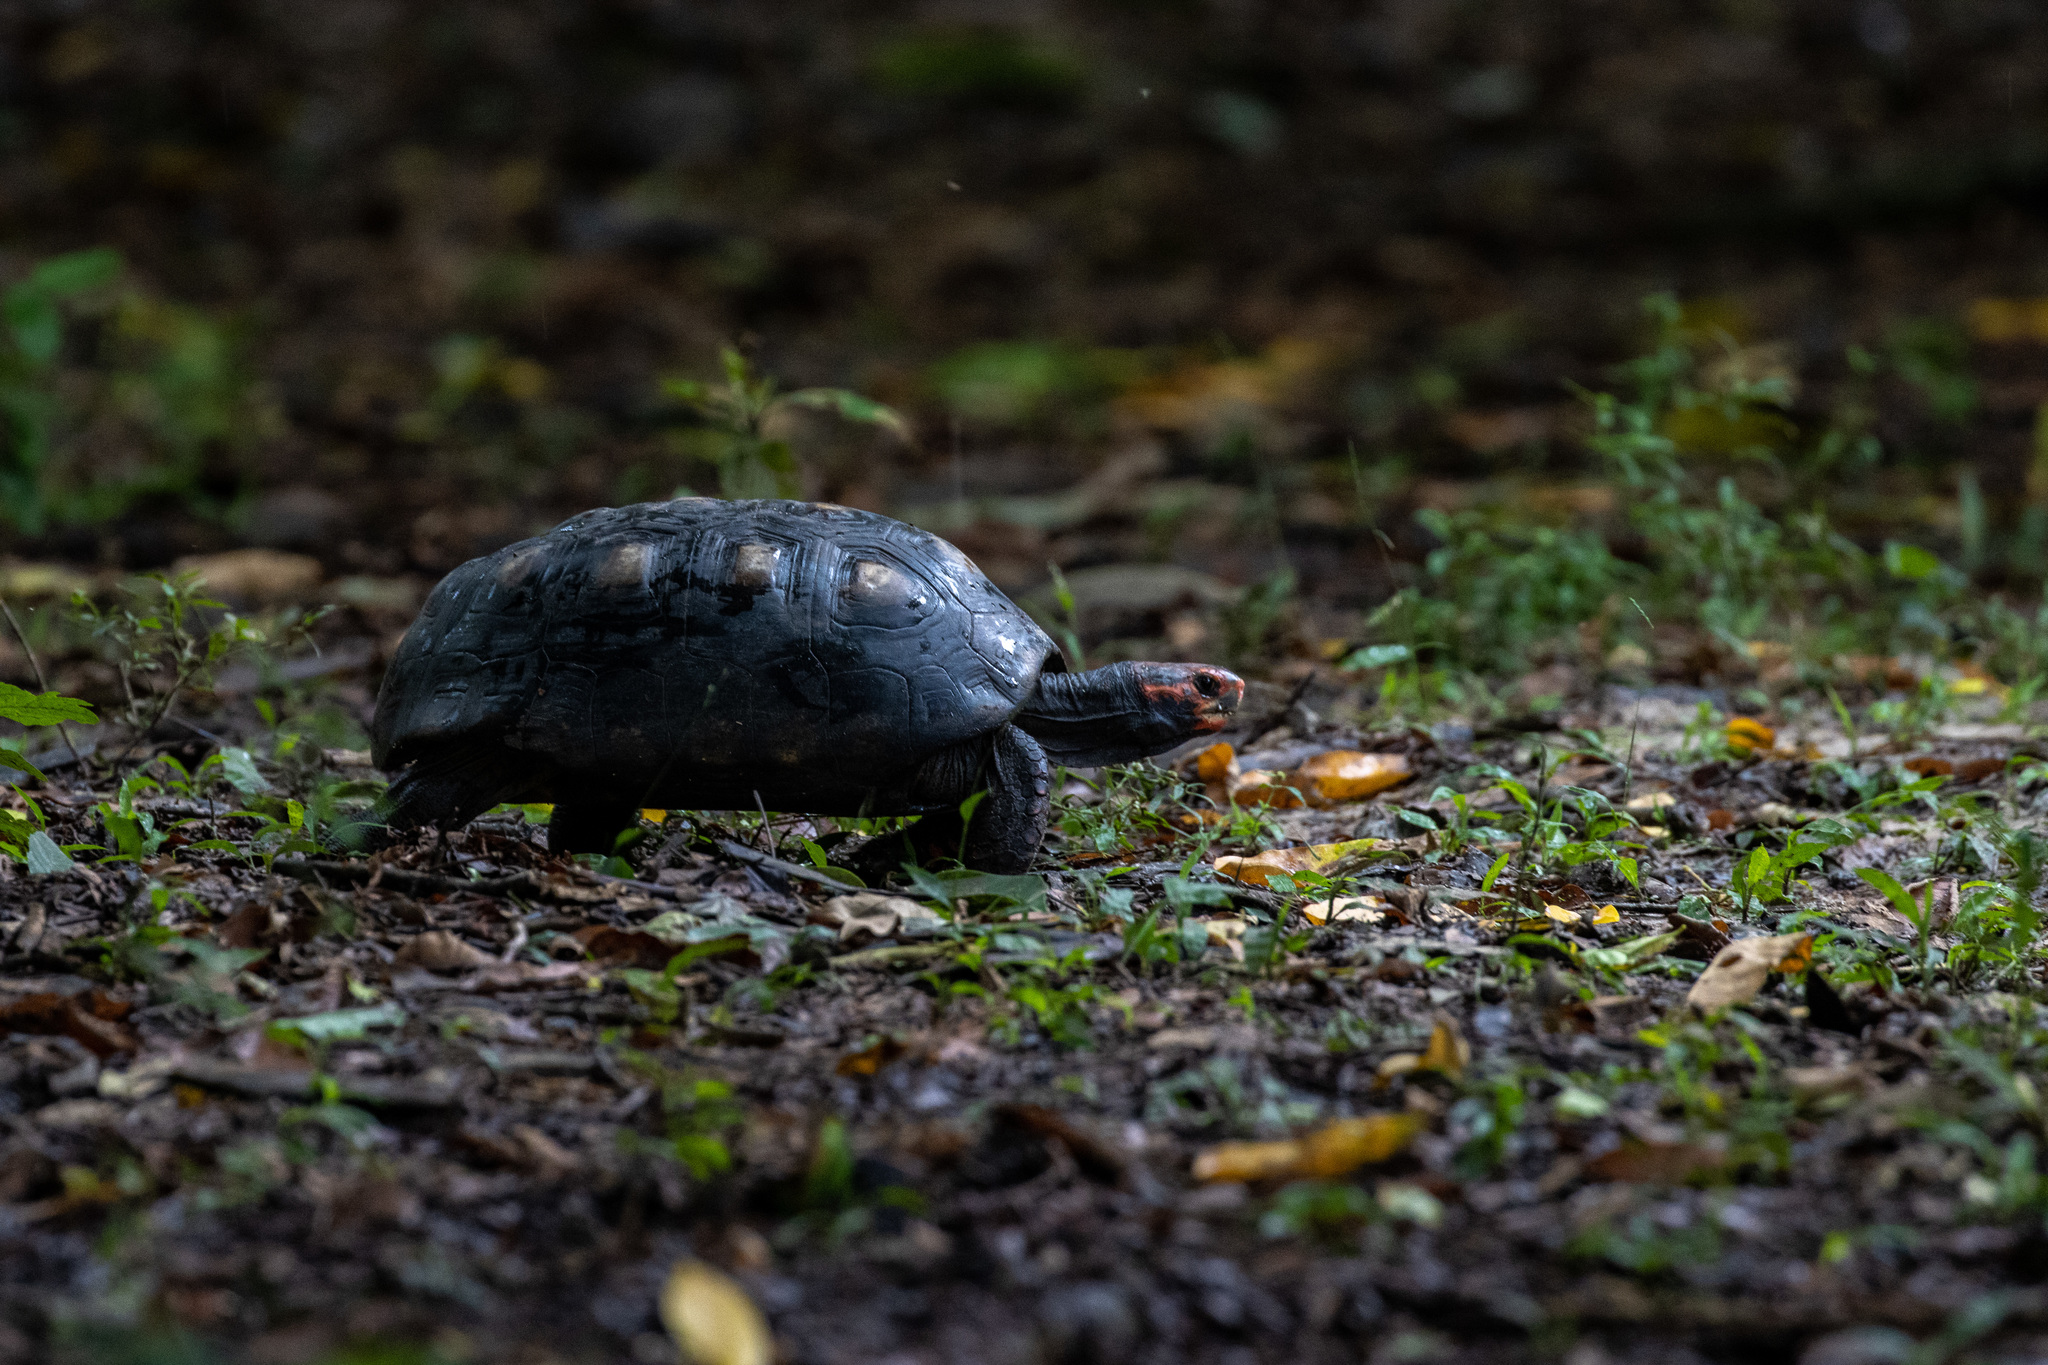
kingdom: Animalia
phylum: Chordata
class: Testudines
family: Testudinidae
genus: Chelonoidis
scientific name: Chelonoidis carbonarius
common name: Red-footed tortoise
